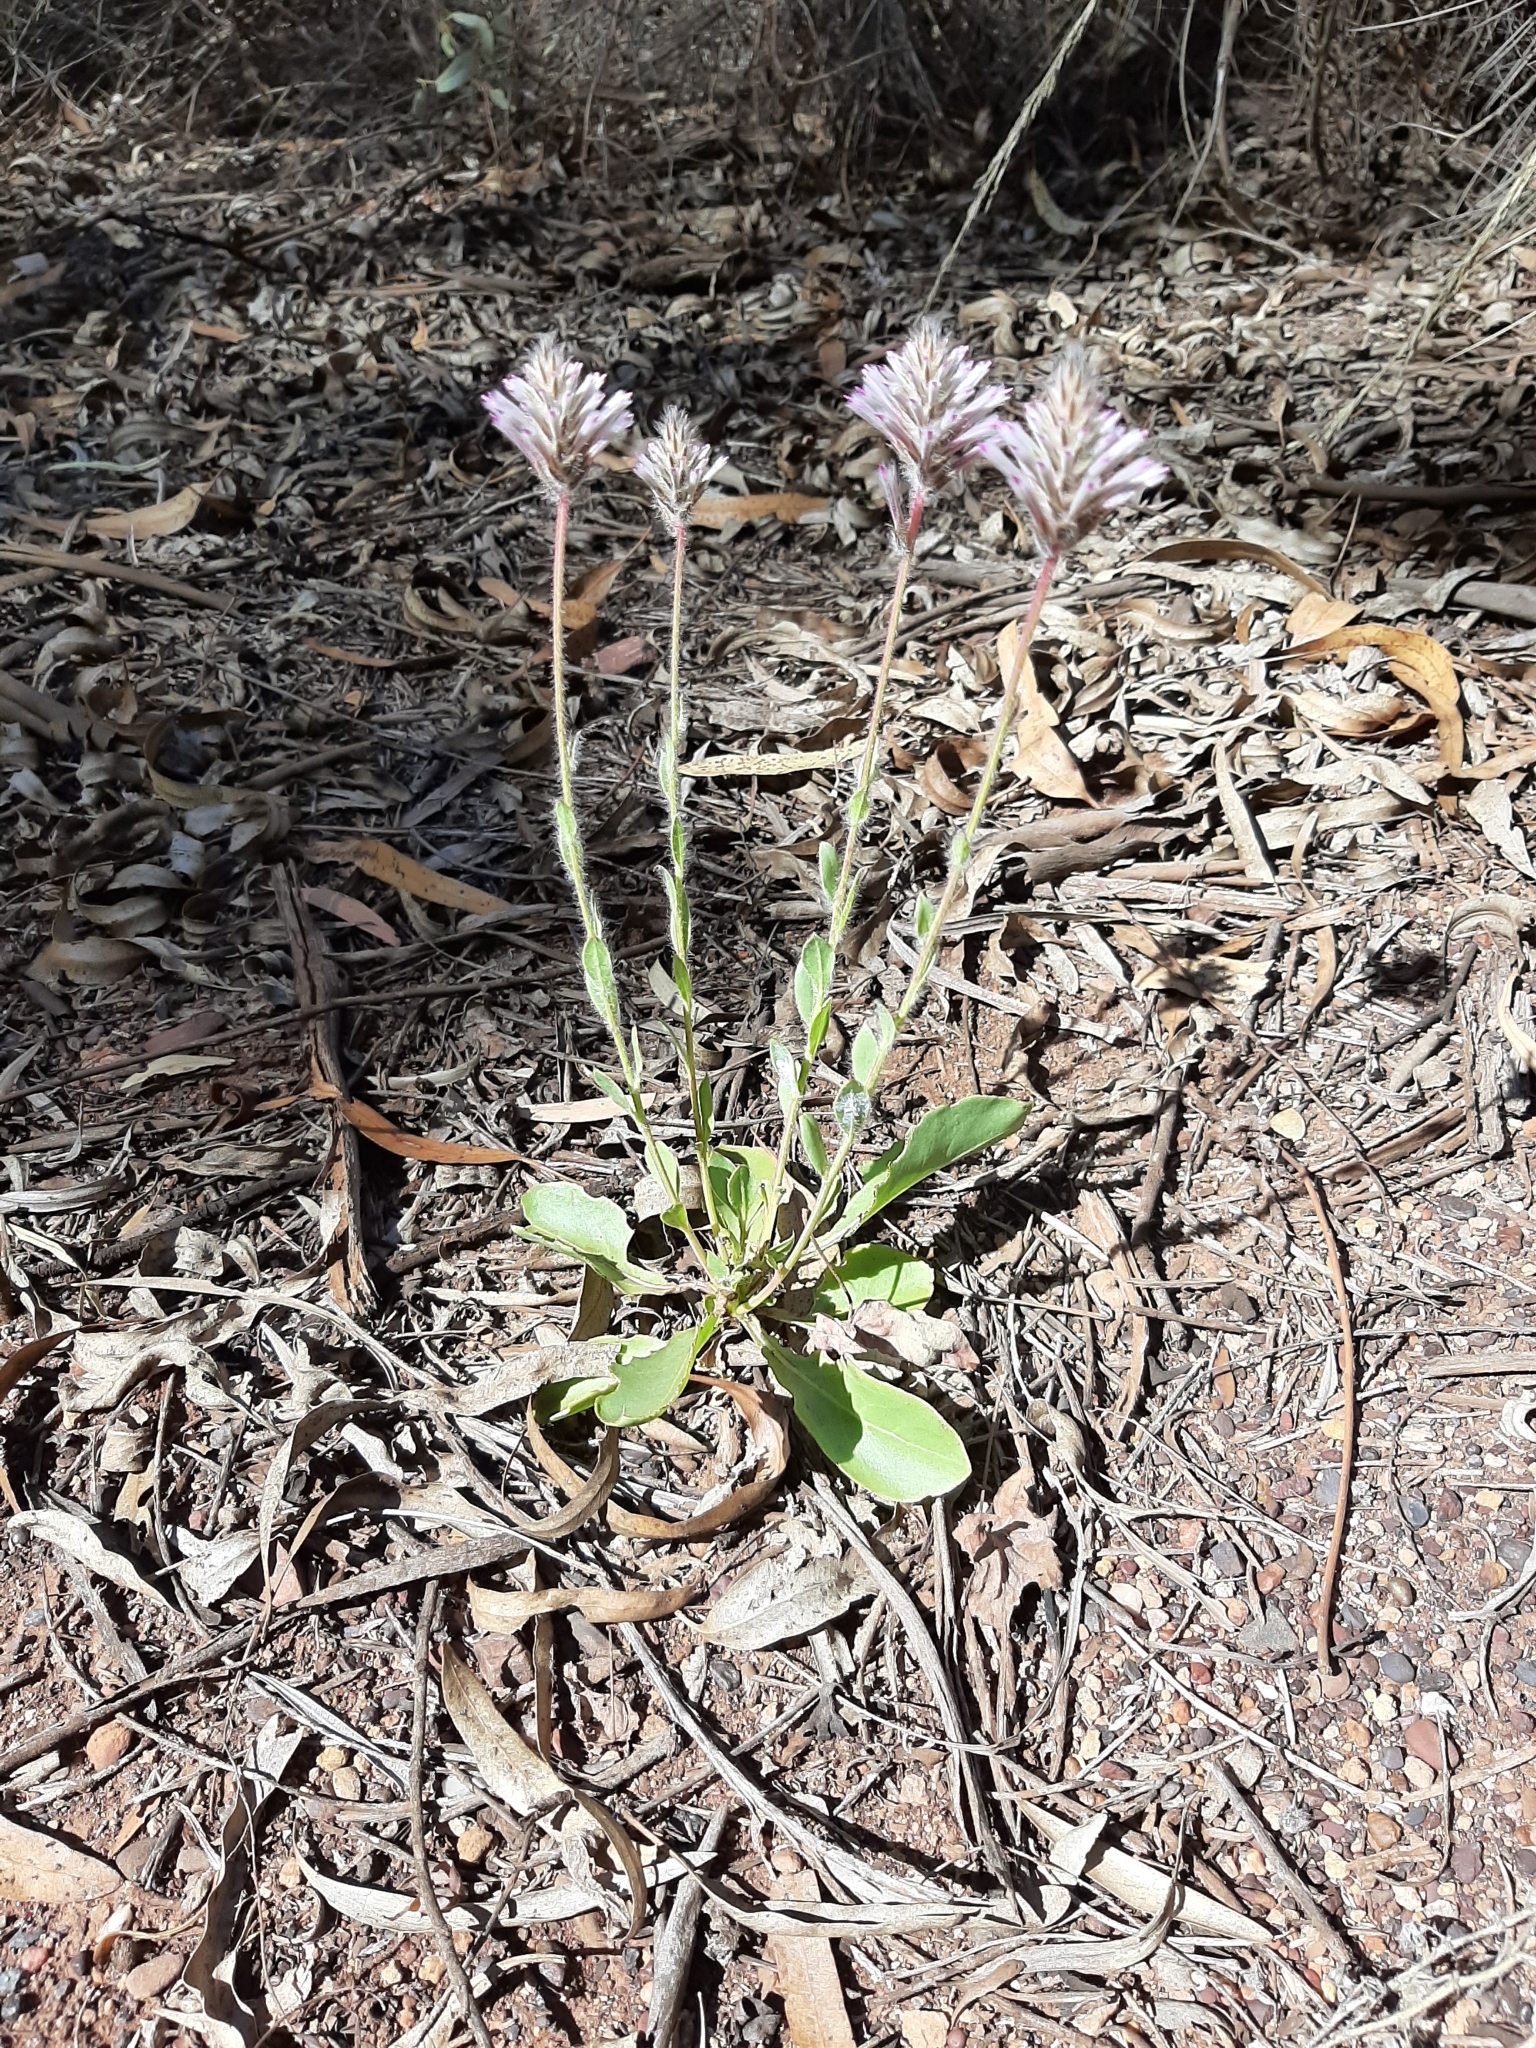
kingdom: Plantae
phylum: Tracheophyta
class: Magnoliopsida
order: Caryophyllales
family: Amaranthaceae
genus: Ptilotus
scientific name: Ptilotus exaltatus
